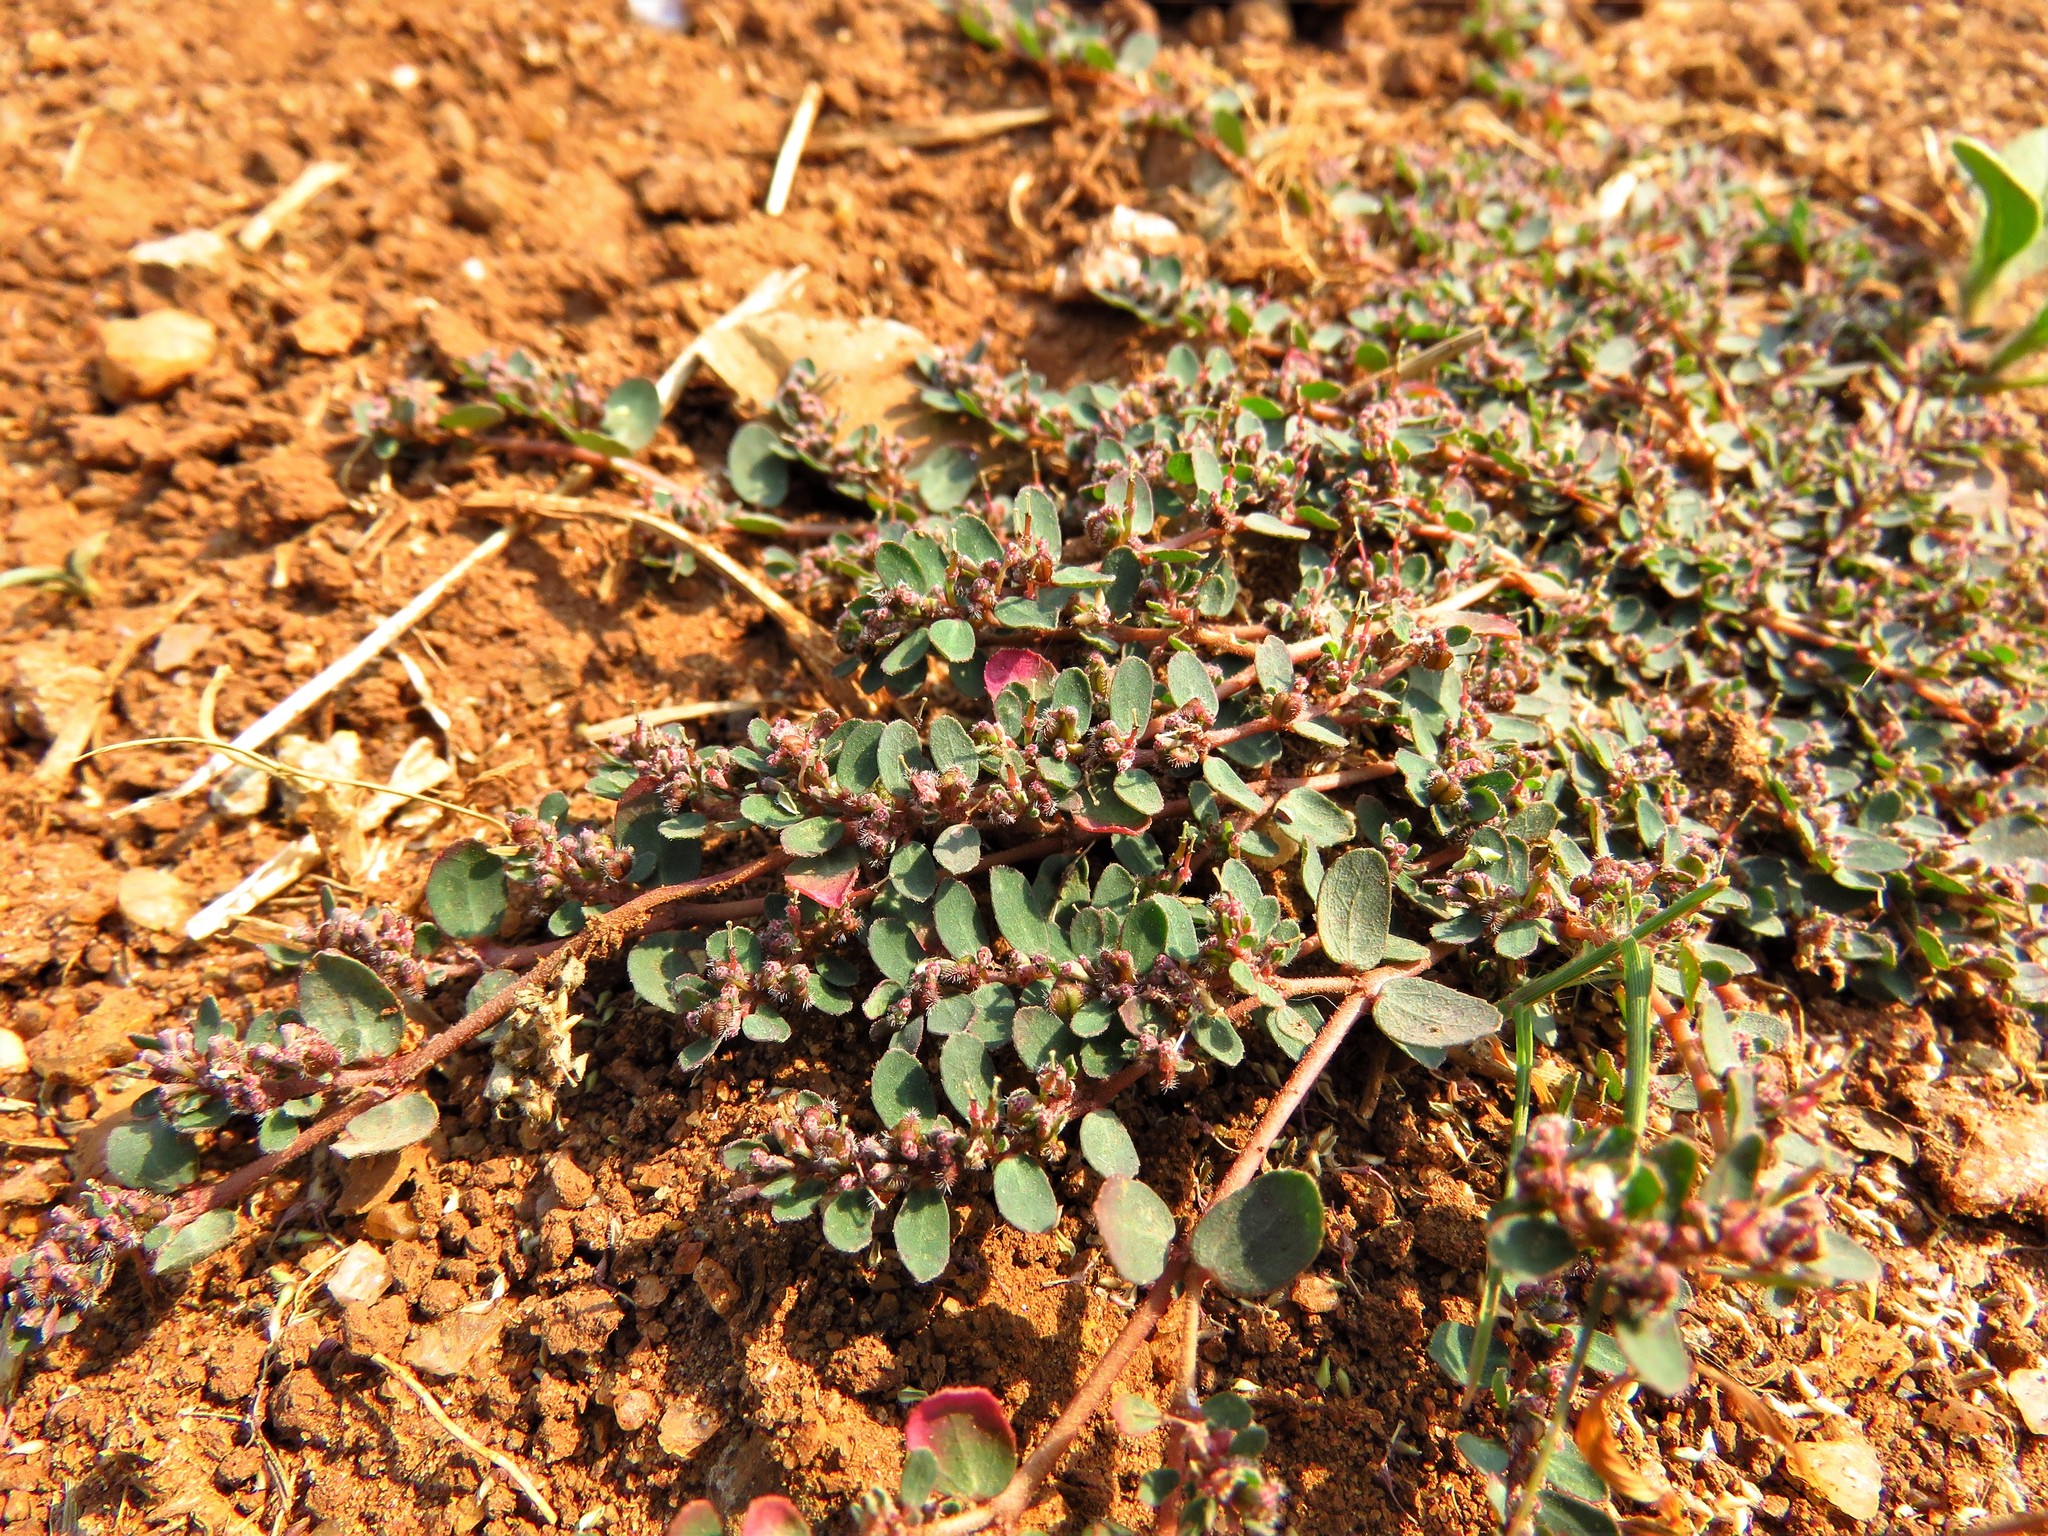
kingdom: Plantae
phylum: Tracheophyta
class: Magnoliopsida
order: Malpighiales
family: Euphorbiaceae
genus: Euphorbia
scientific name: Euphorbia prostrata
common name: Prostrate sandmat
